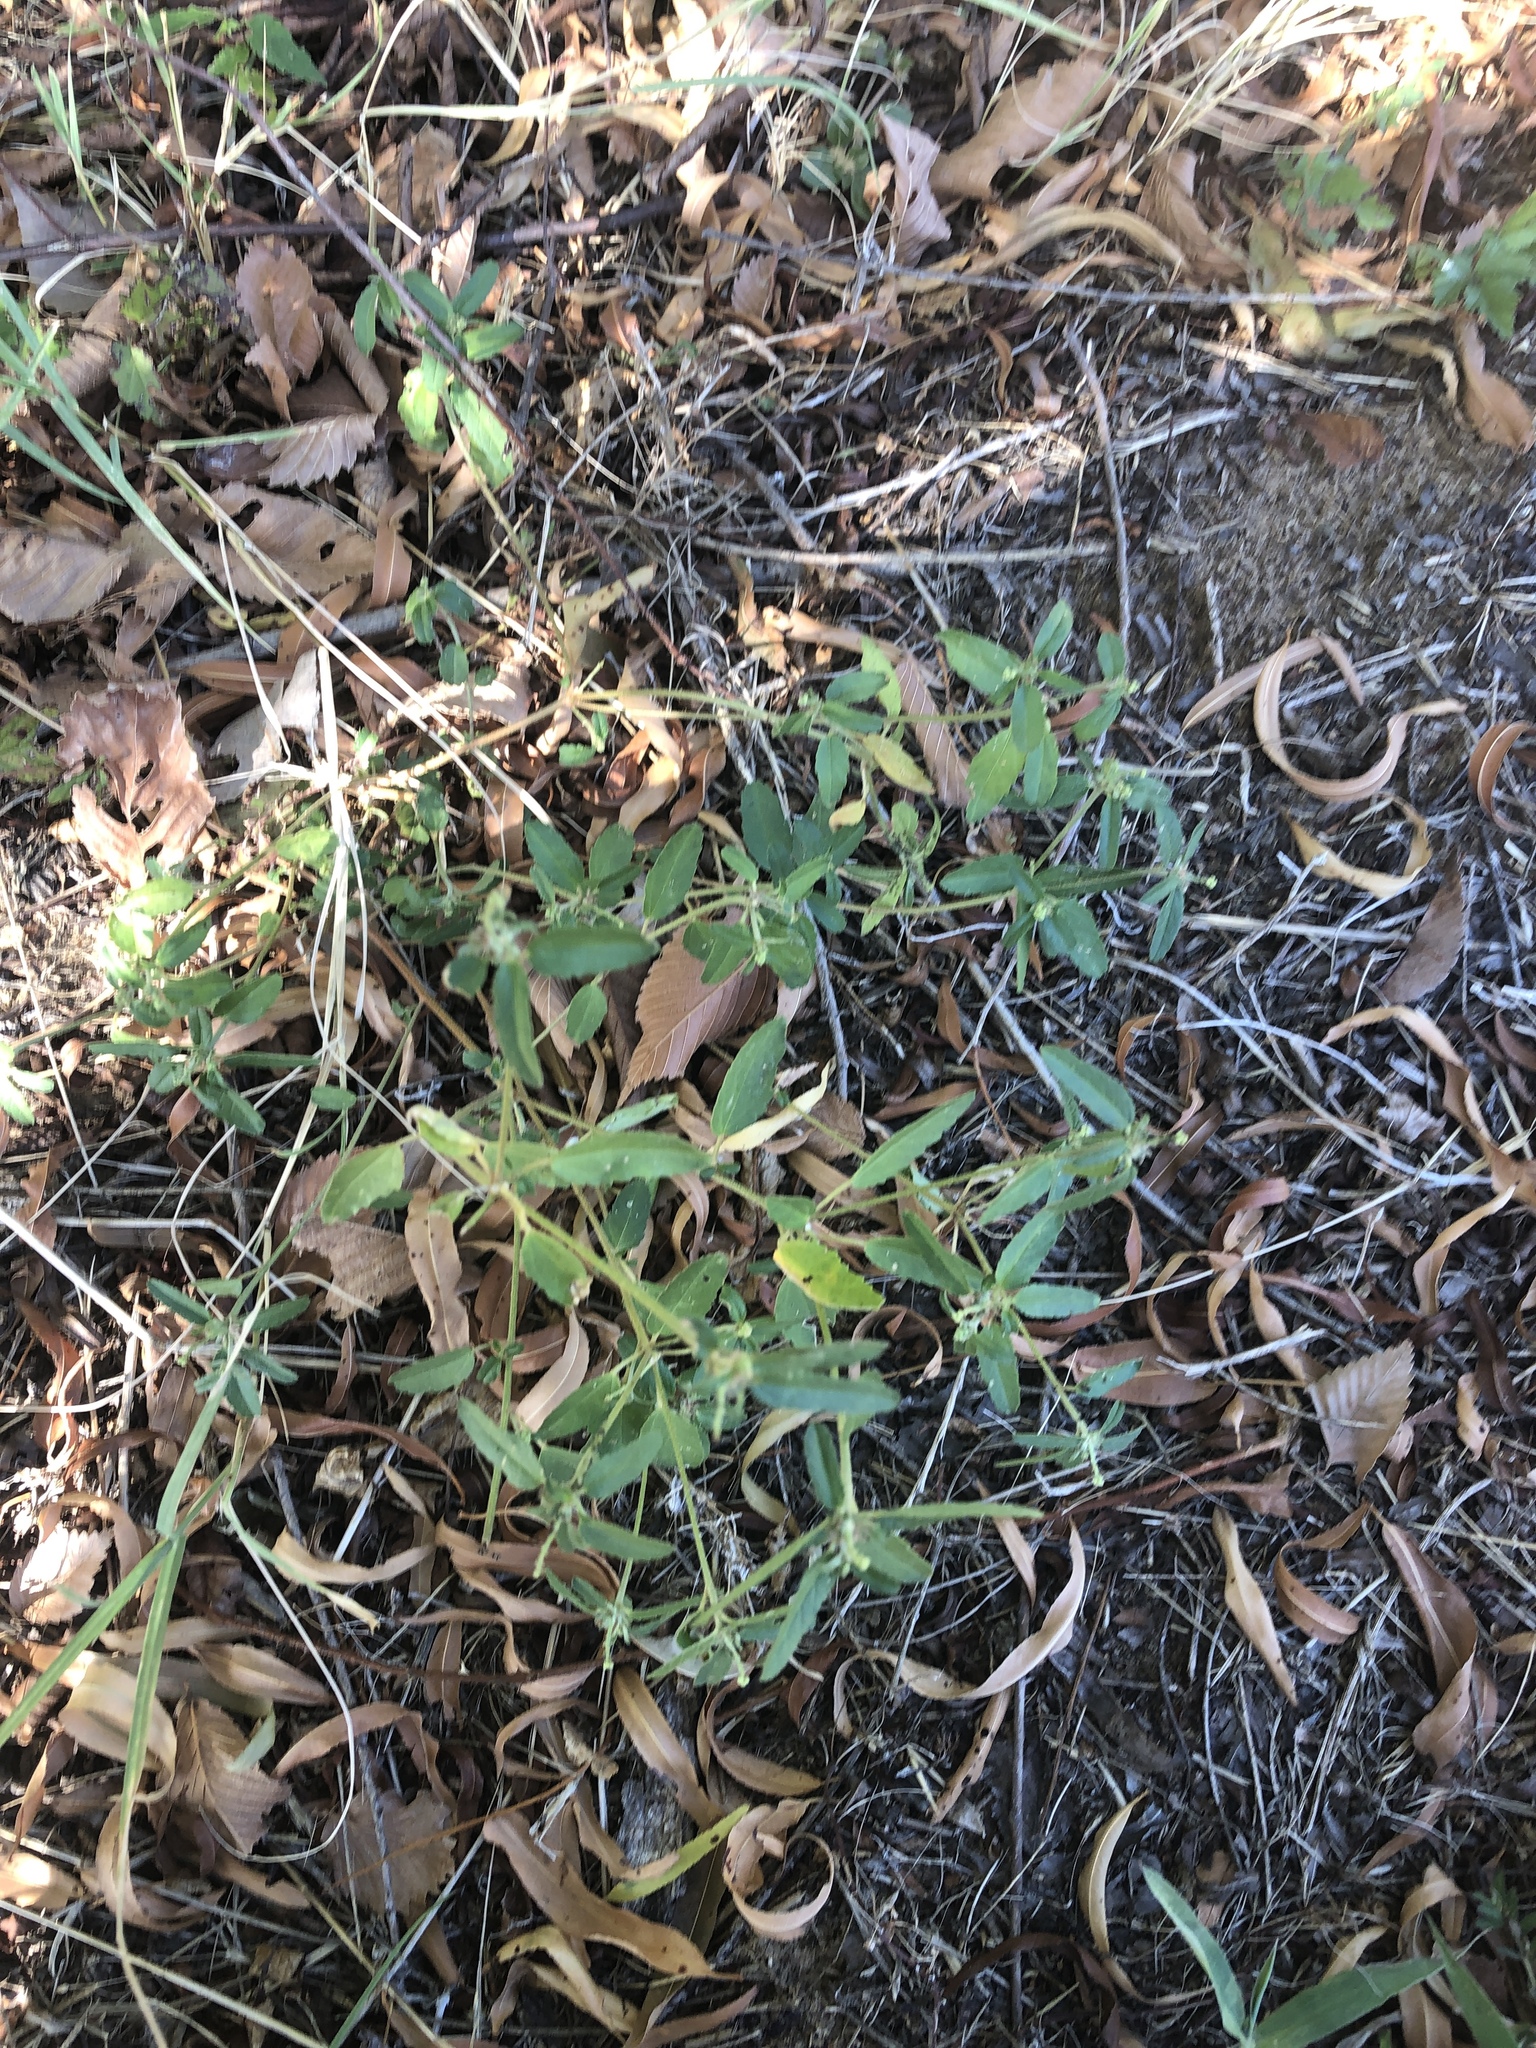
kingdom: Plantae
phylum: Tracheophyta
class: Magnoliopsida
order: Malpighiales
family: Euphorbiaceae
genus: Croton
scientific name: Croton glandulosus
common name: Tropic croton
